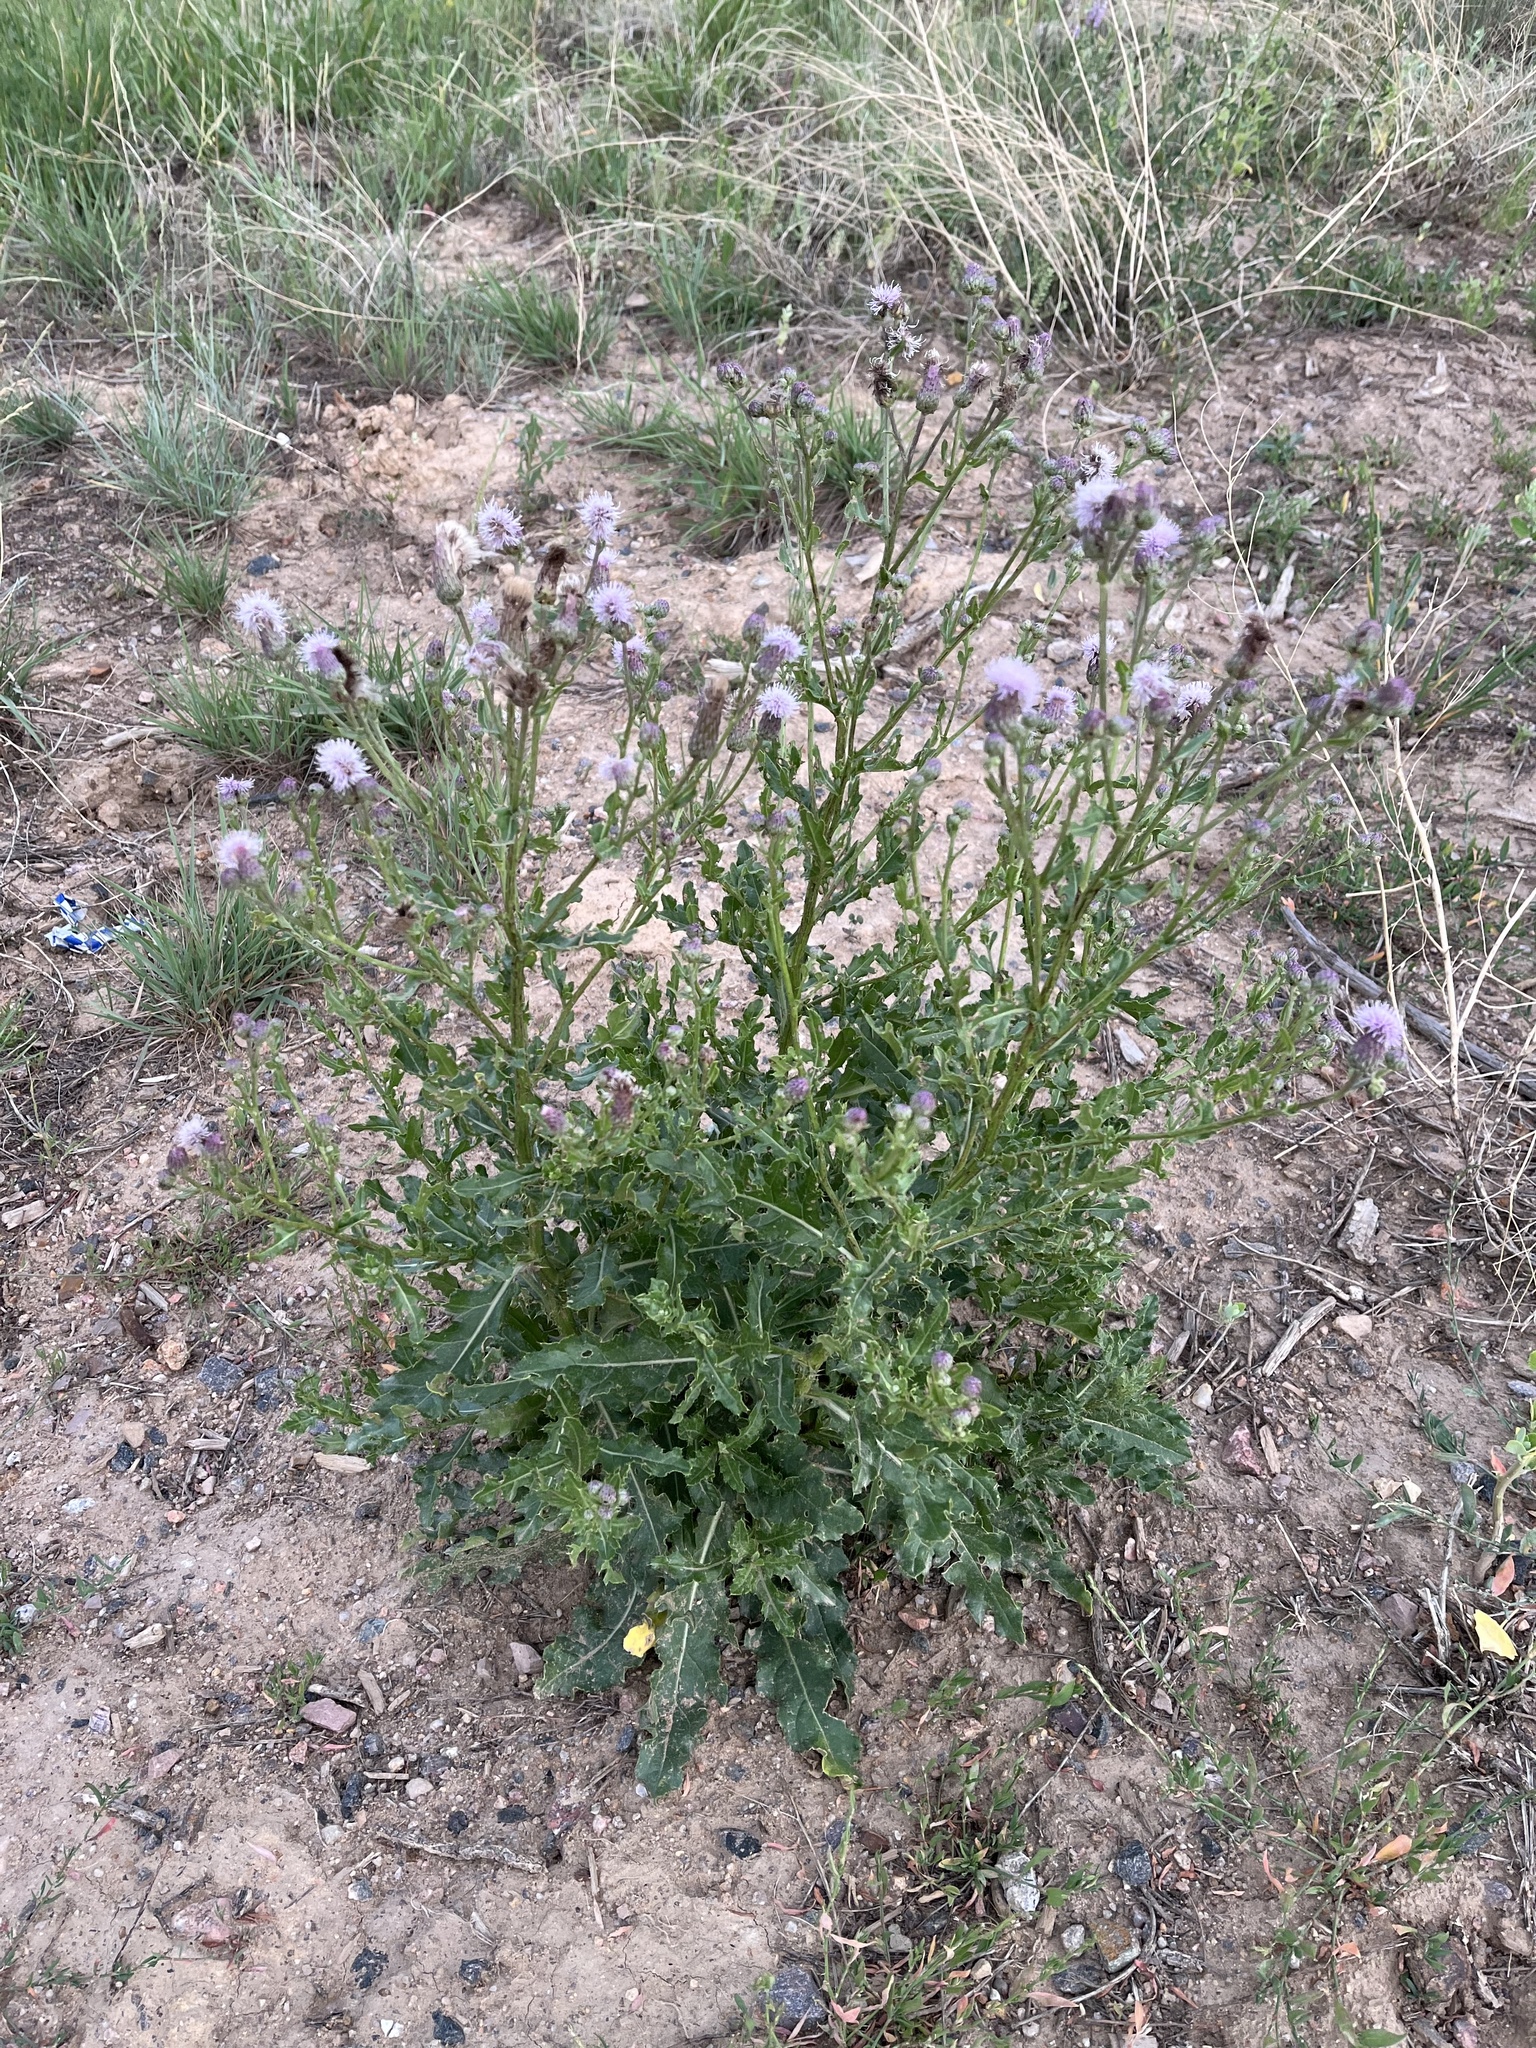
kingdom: Plantae
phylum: Tracheophyta
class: Magnoliopsida
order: Asterales
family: Asteraceae
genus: Cirsium
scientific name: Cirsium arvense
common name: Creeping thistle
